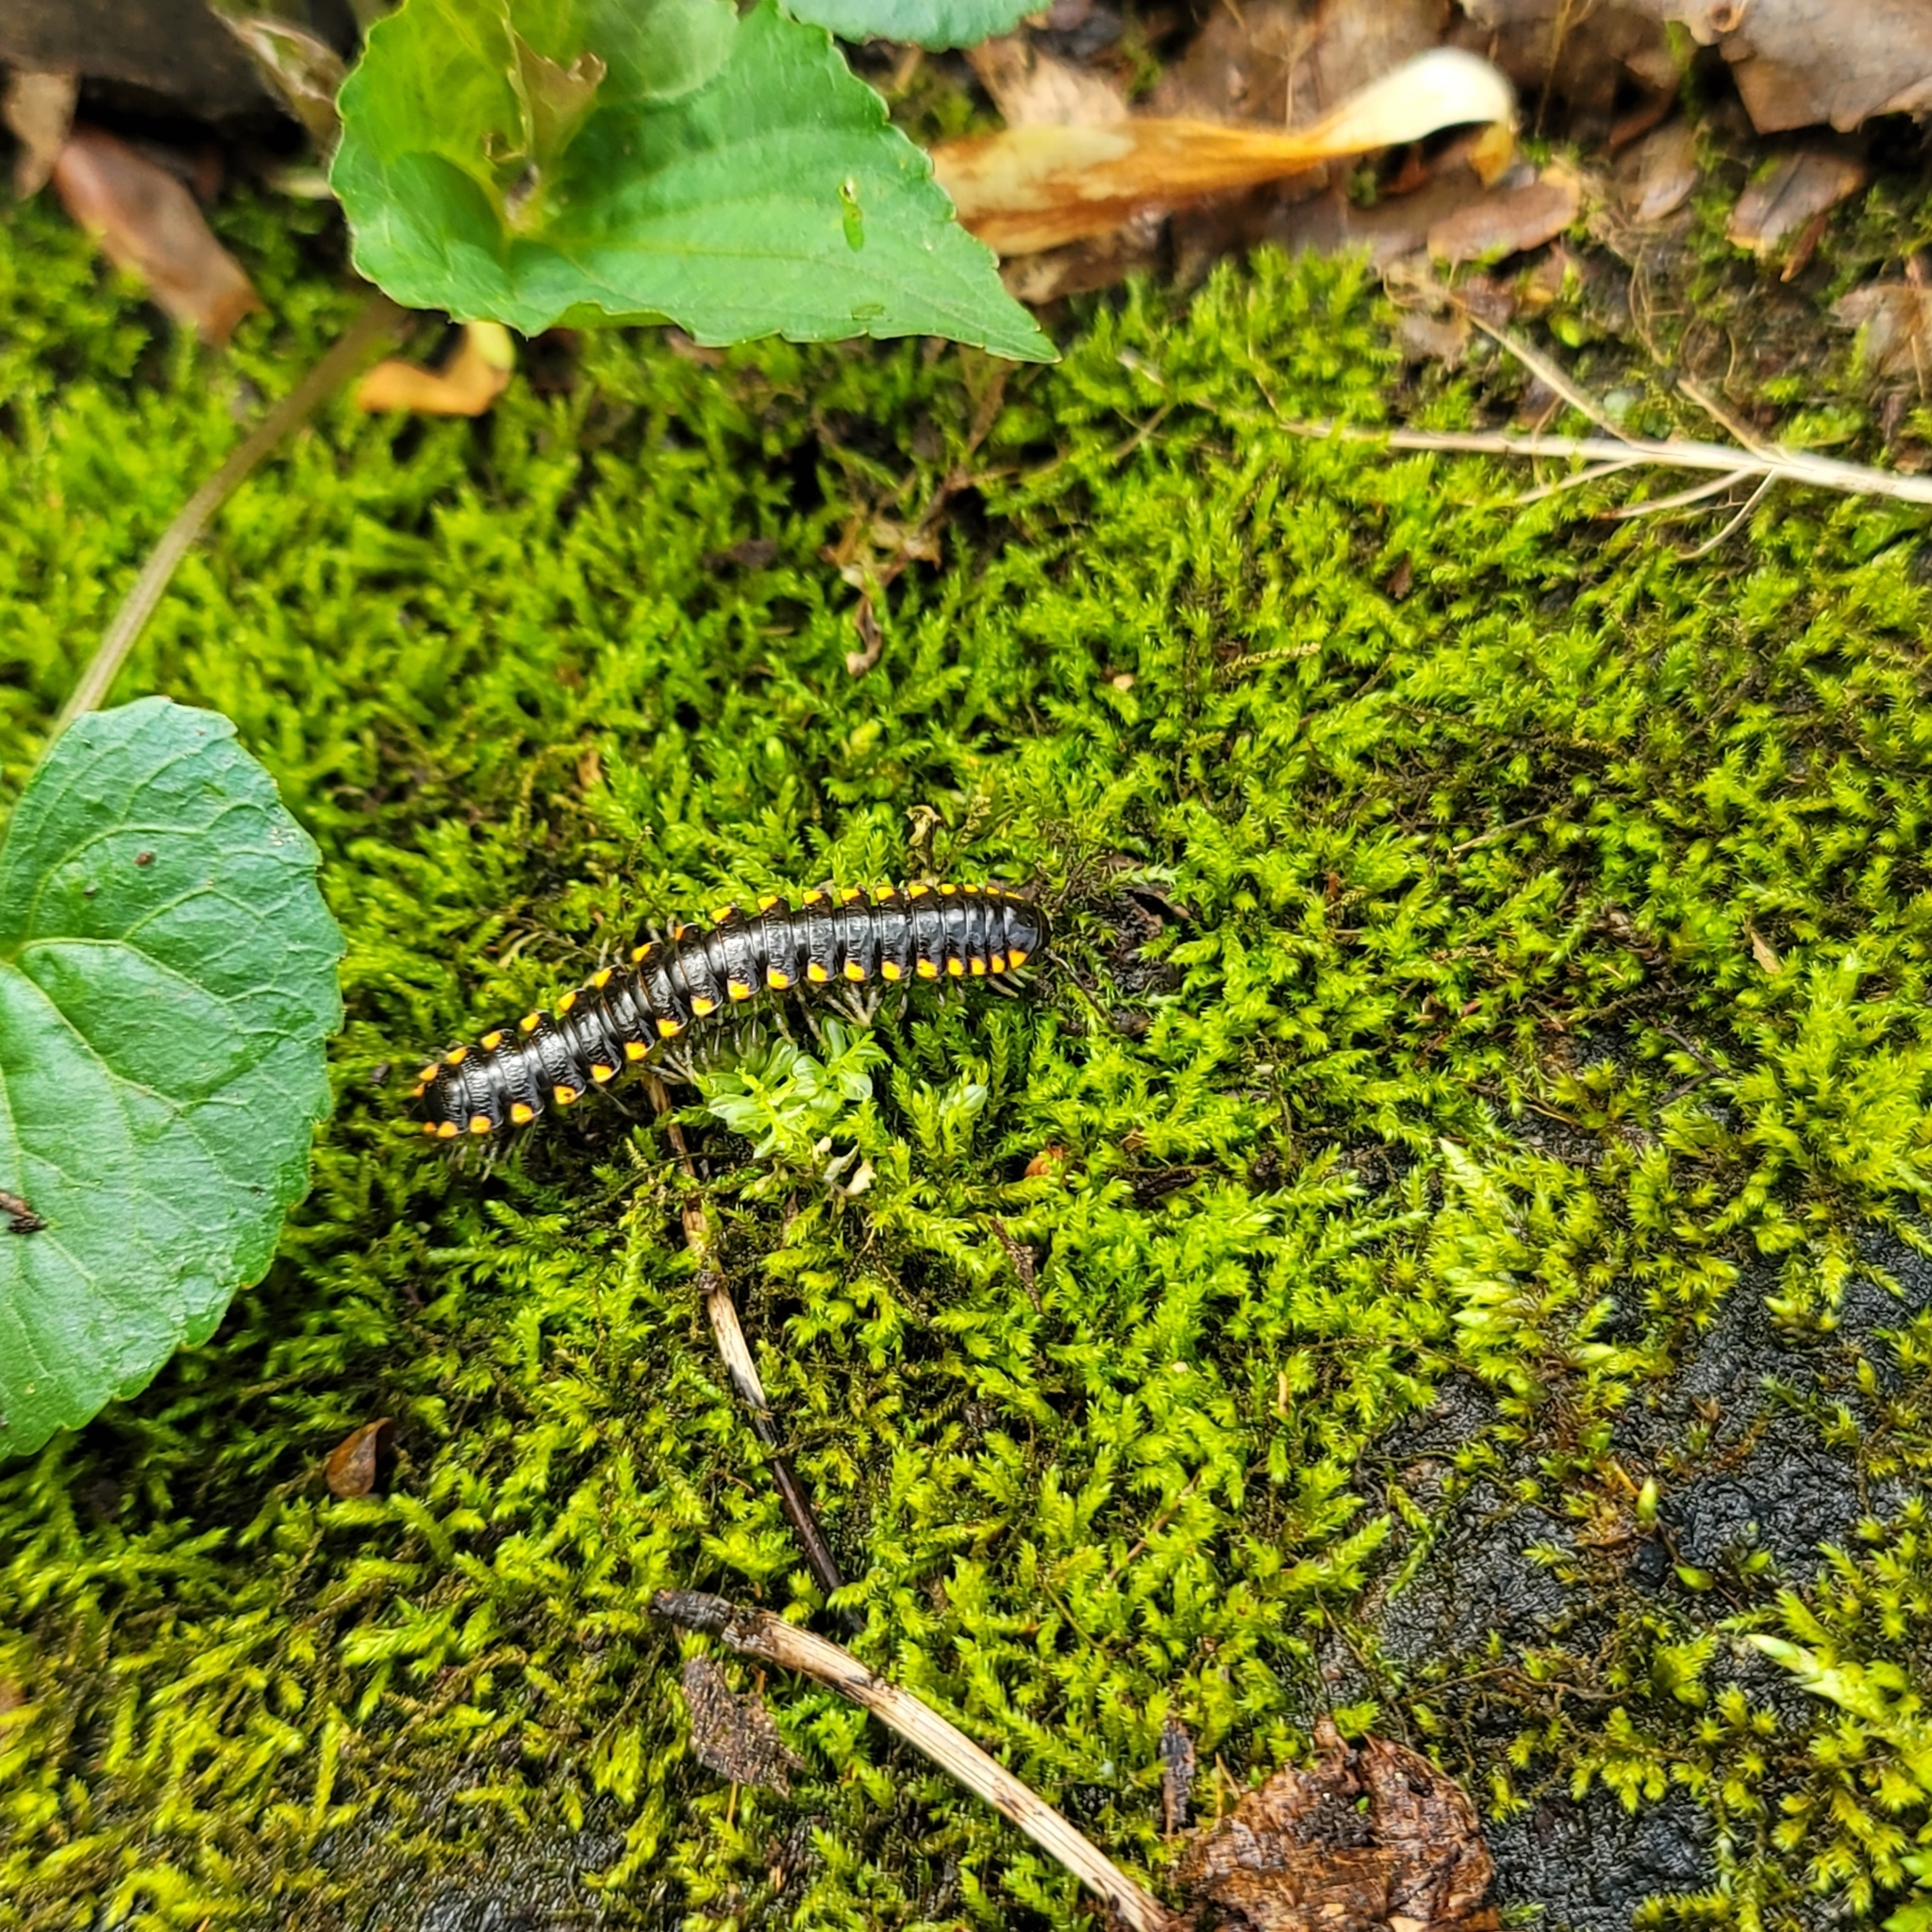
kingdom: Animalia
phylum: Arthropoda
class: Diplopoda
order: Polydesmida
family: Xystodesmidae
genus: Boraria
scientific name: Boraria stricta
